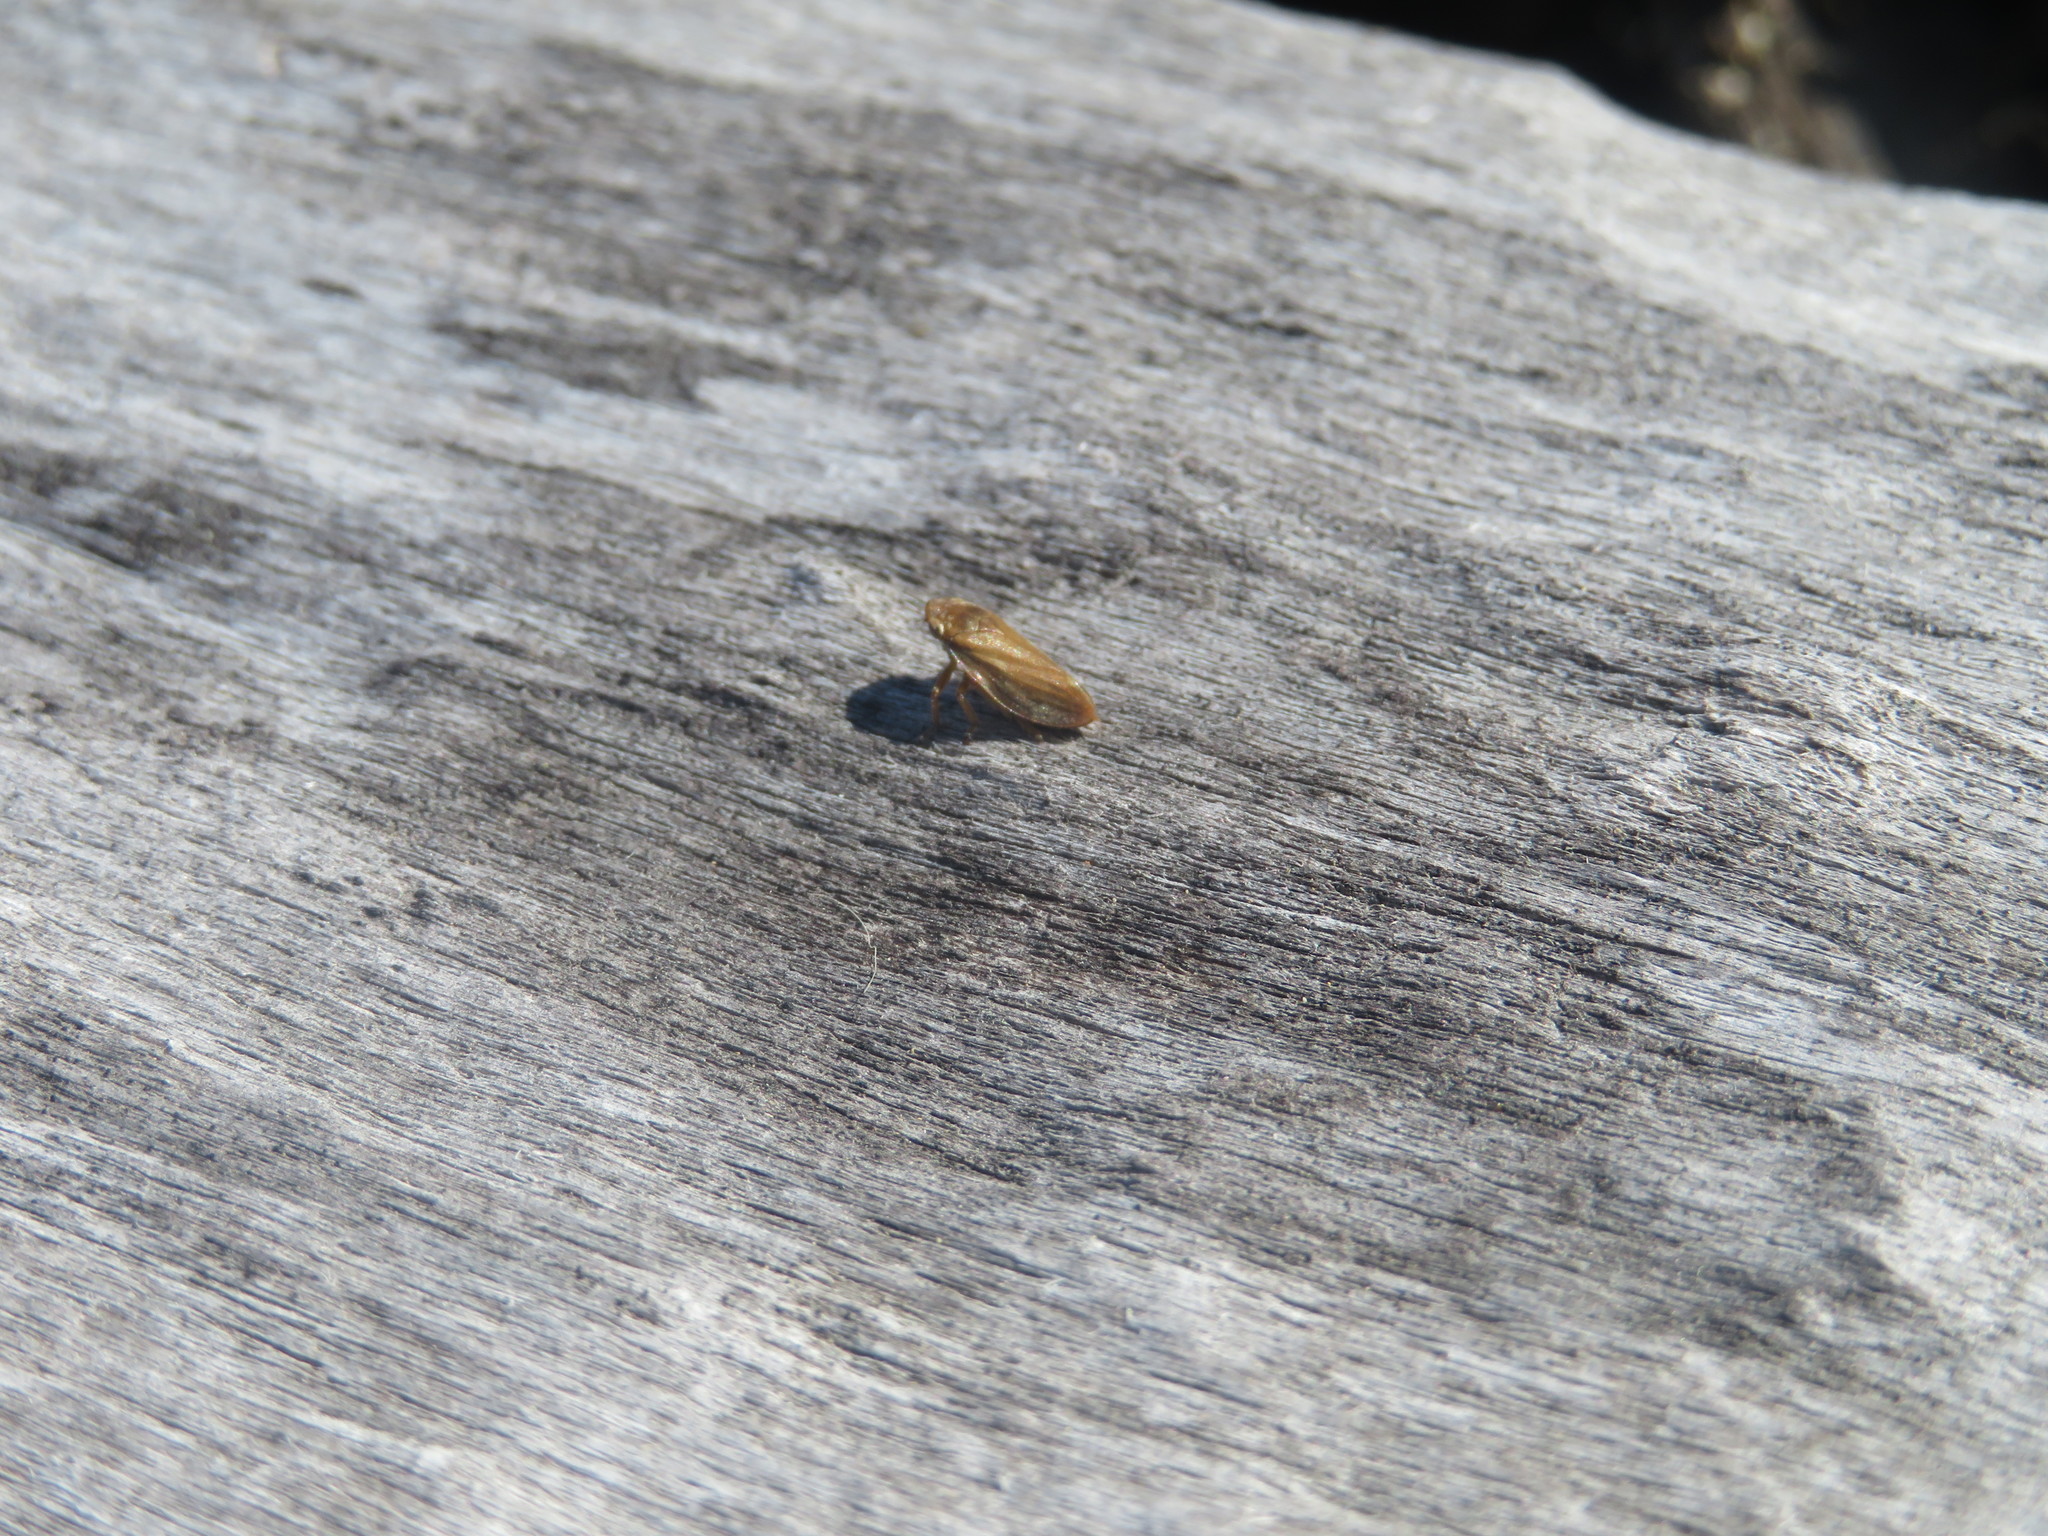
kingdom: Animalia
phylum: Arthropoda
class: Insecta
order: Hemiptera
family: Aphrophoridae
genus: Philaenus
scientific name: Philaenus spumarius
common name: Meadow spittlebug
